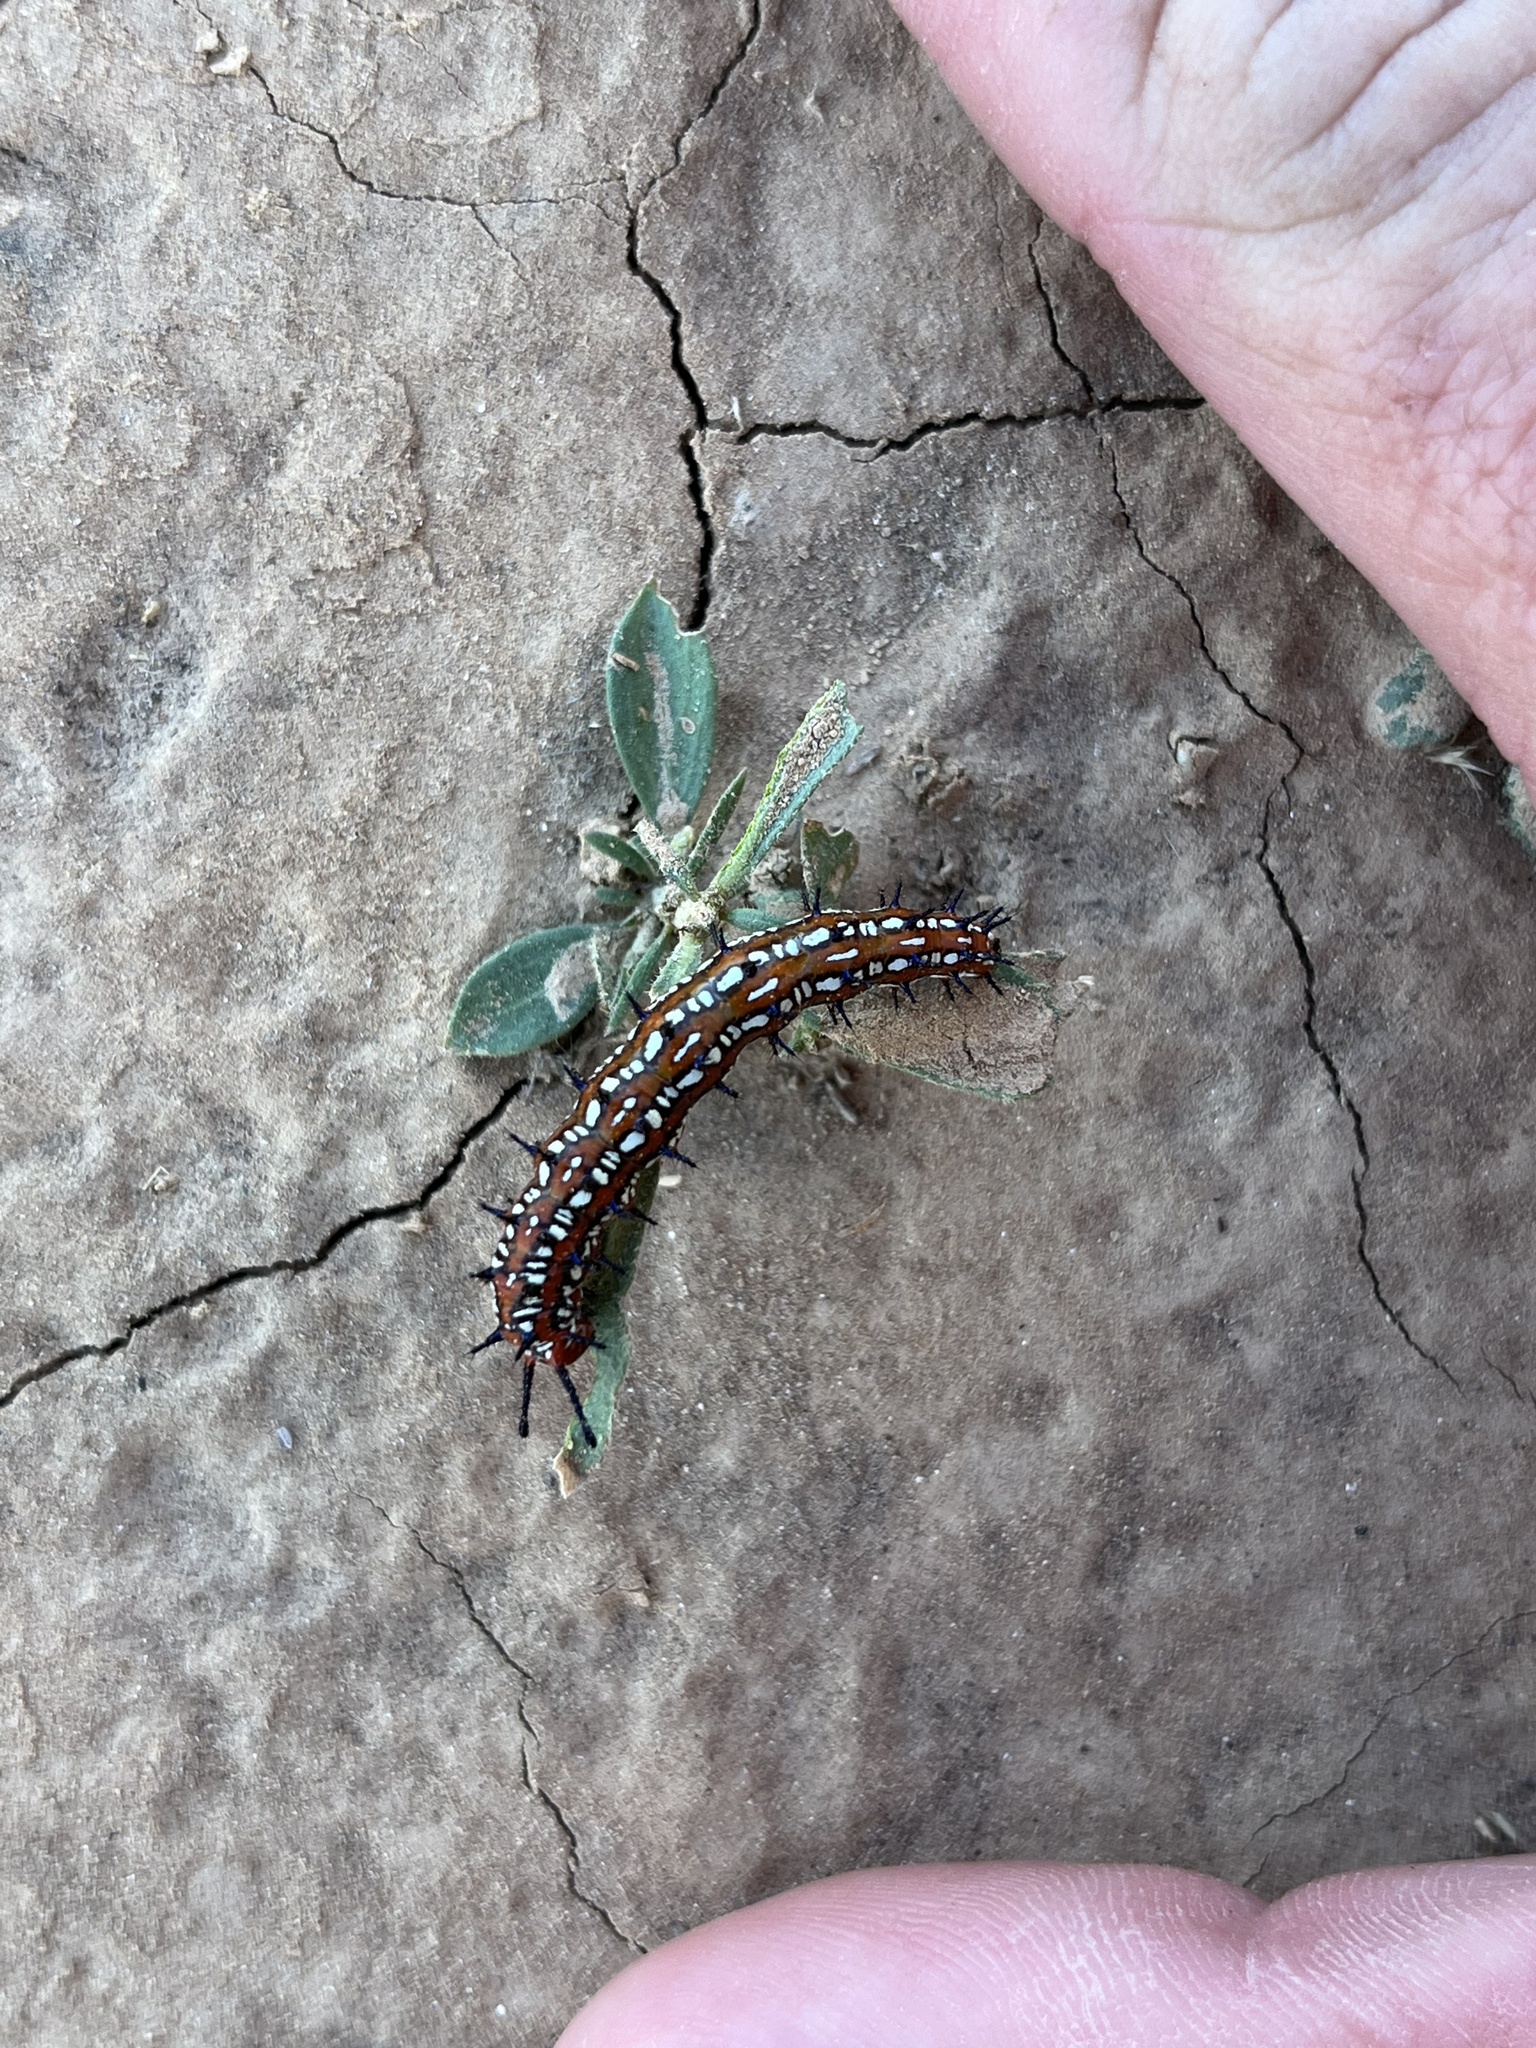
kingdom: Animalia
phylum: Arthropoda
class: Insecta
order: Lepidoptera
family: Nymphalidae
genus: Euptoieta
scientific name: Euptoieta claudia
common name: Variegated fritillary
